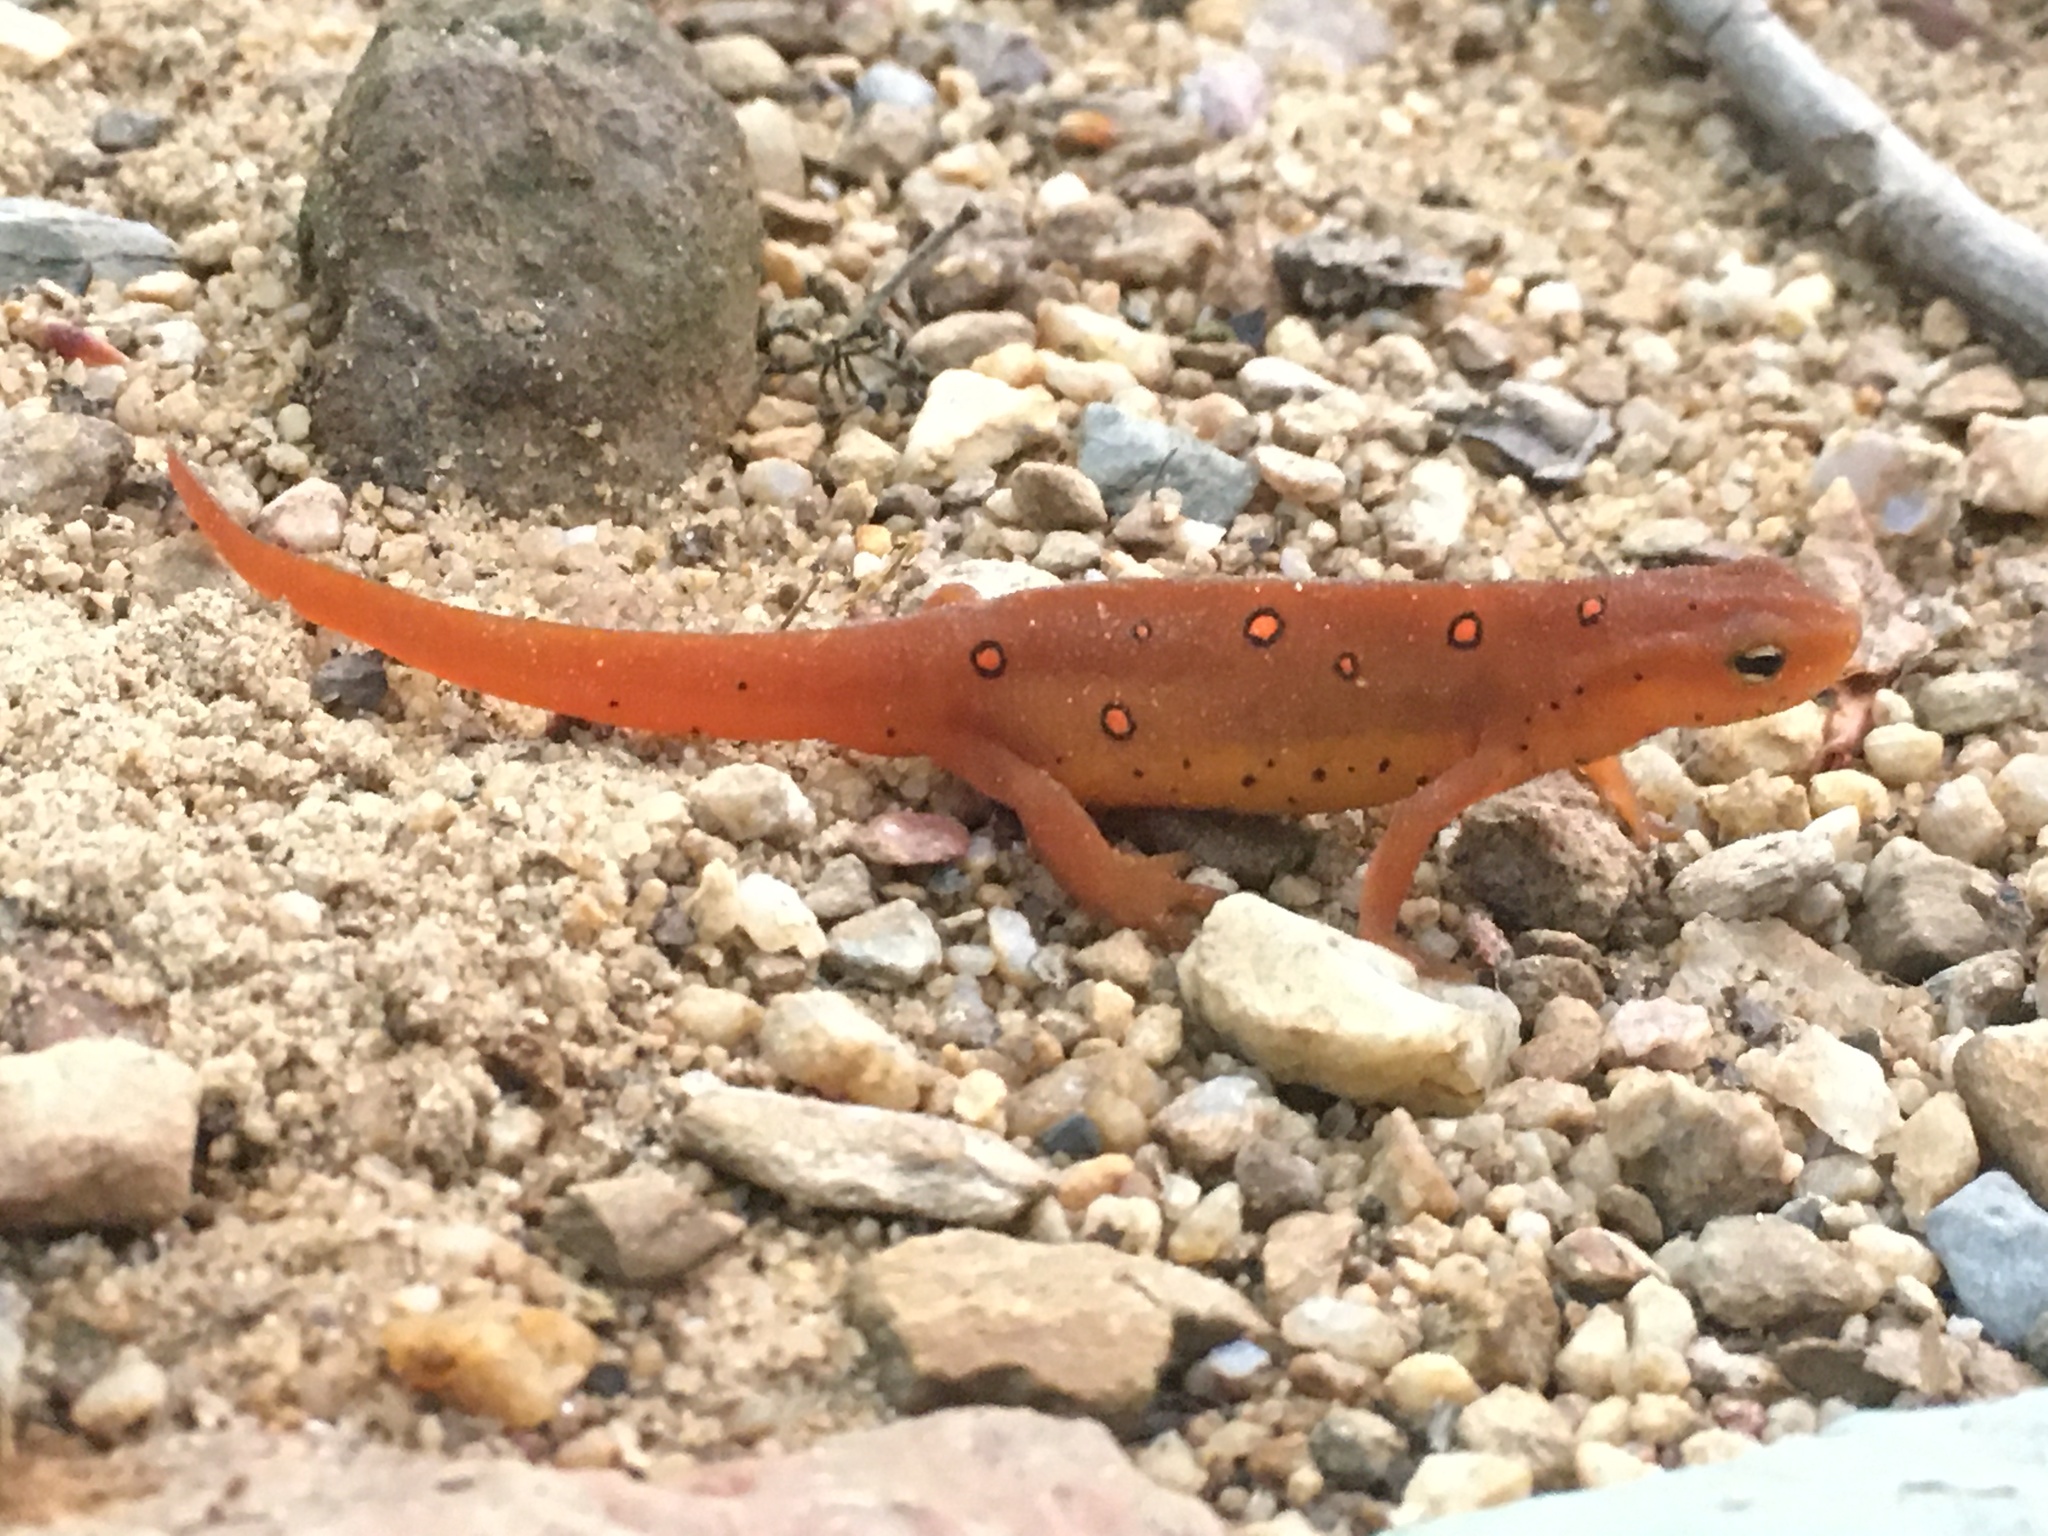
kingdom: Animalia
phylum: Chordata
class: Amphibia
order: Caudata
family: Salamandridae
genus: Notophthalmus
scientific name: Notophthalmus viridescens
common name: Eastern newt
